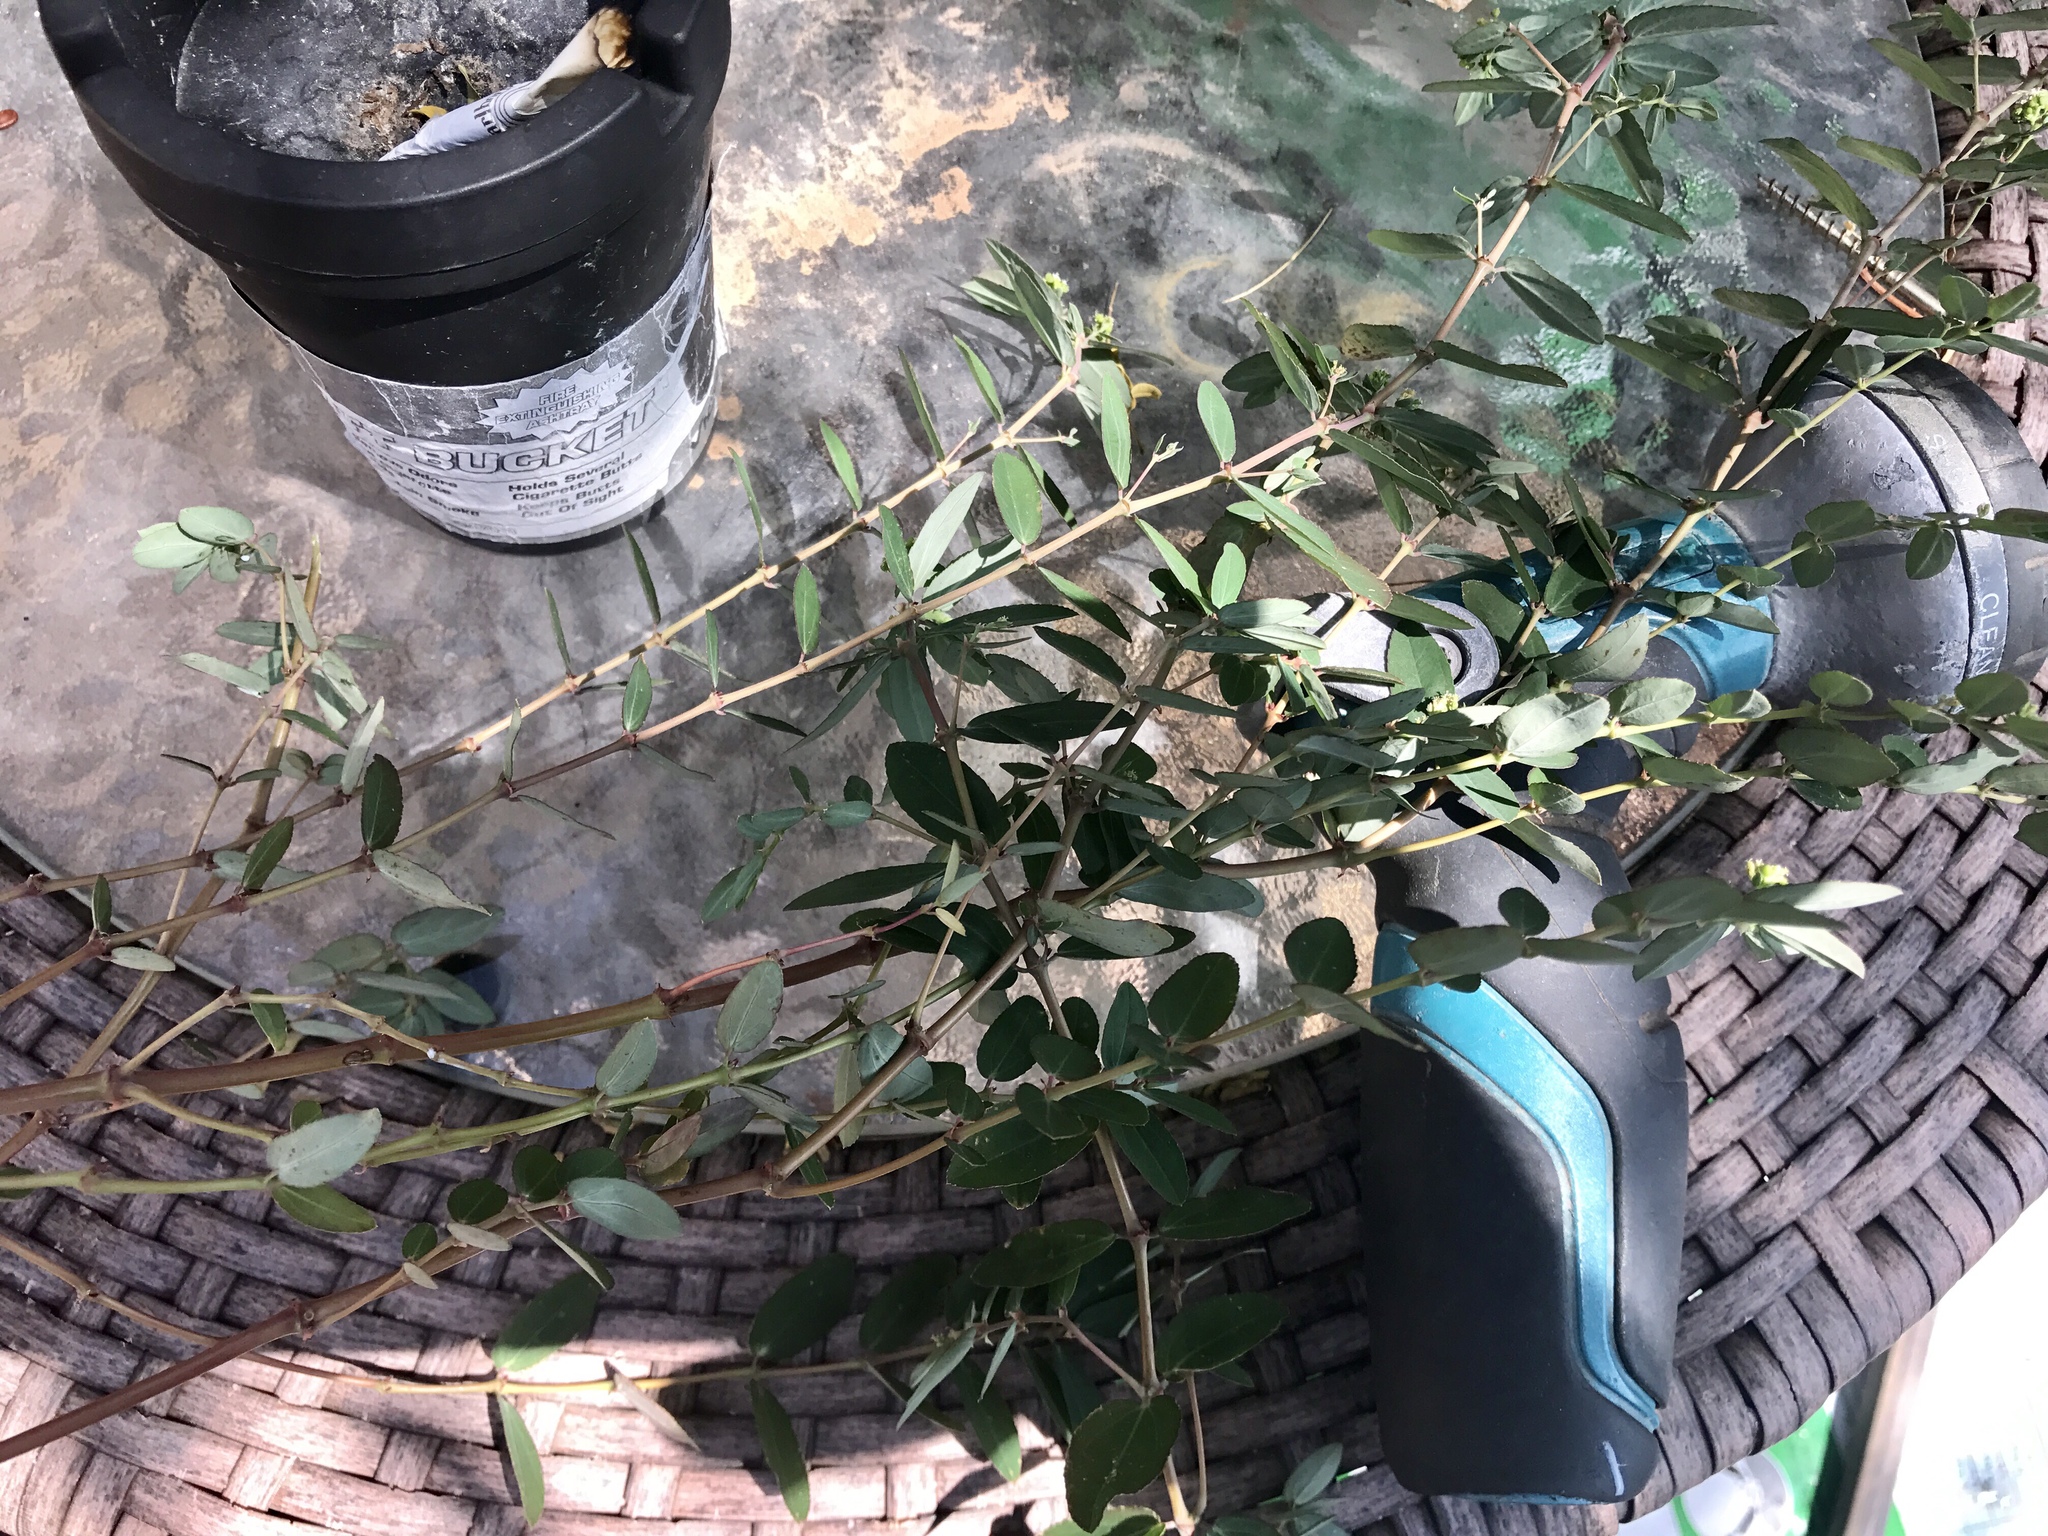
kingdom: Plantae
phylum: Tracheophyta
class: Magnoliopsida
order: Malpighiales
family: Euphorbiaceae
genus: Euphorbia
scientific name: Euphorbia hypericifolia
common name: Graceful sandmat
